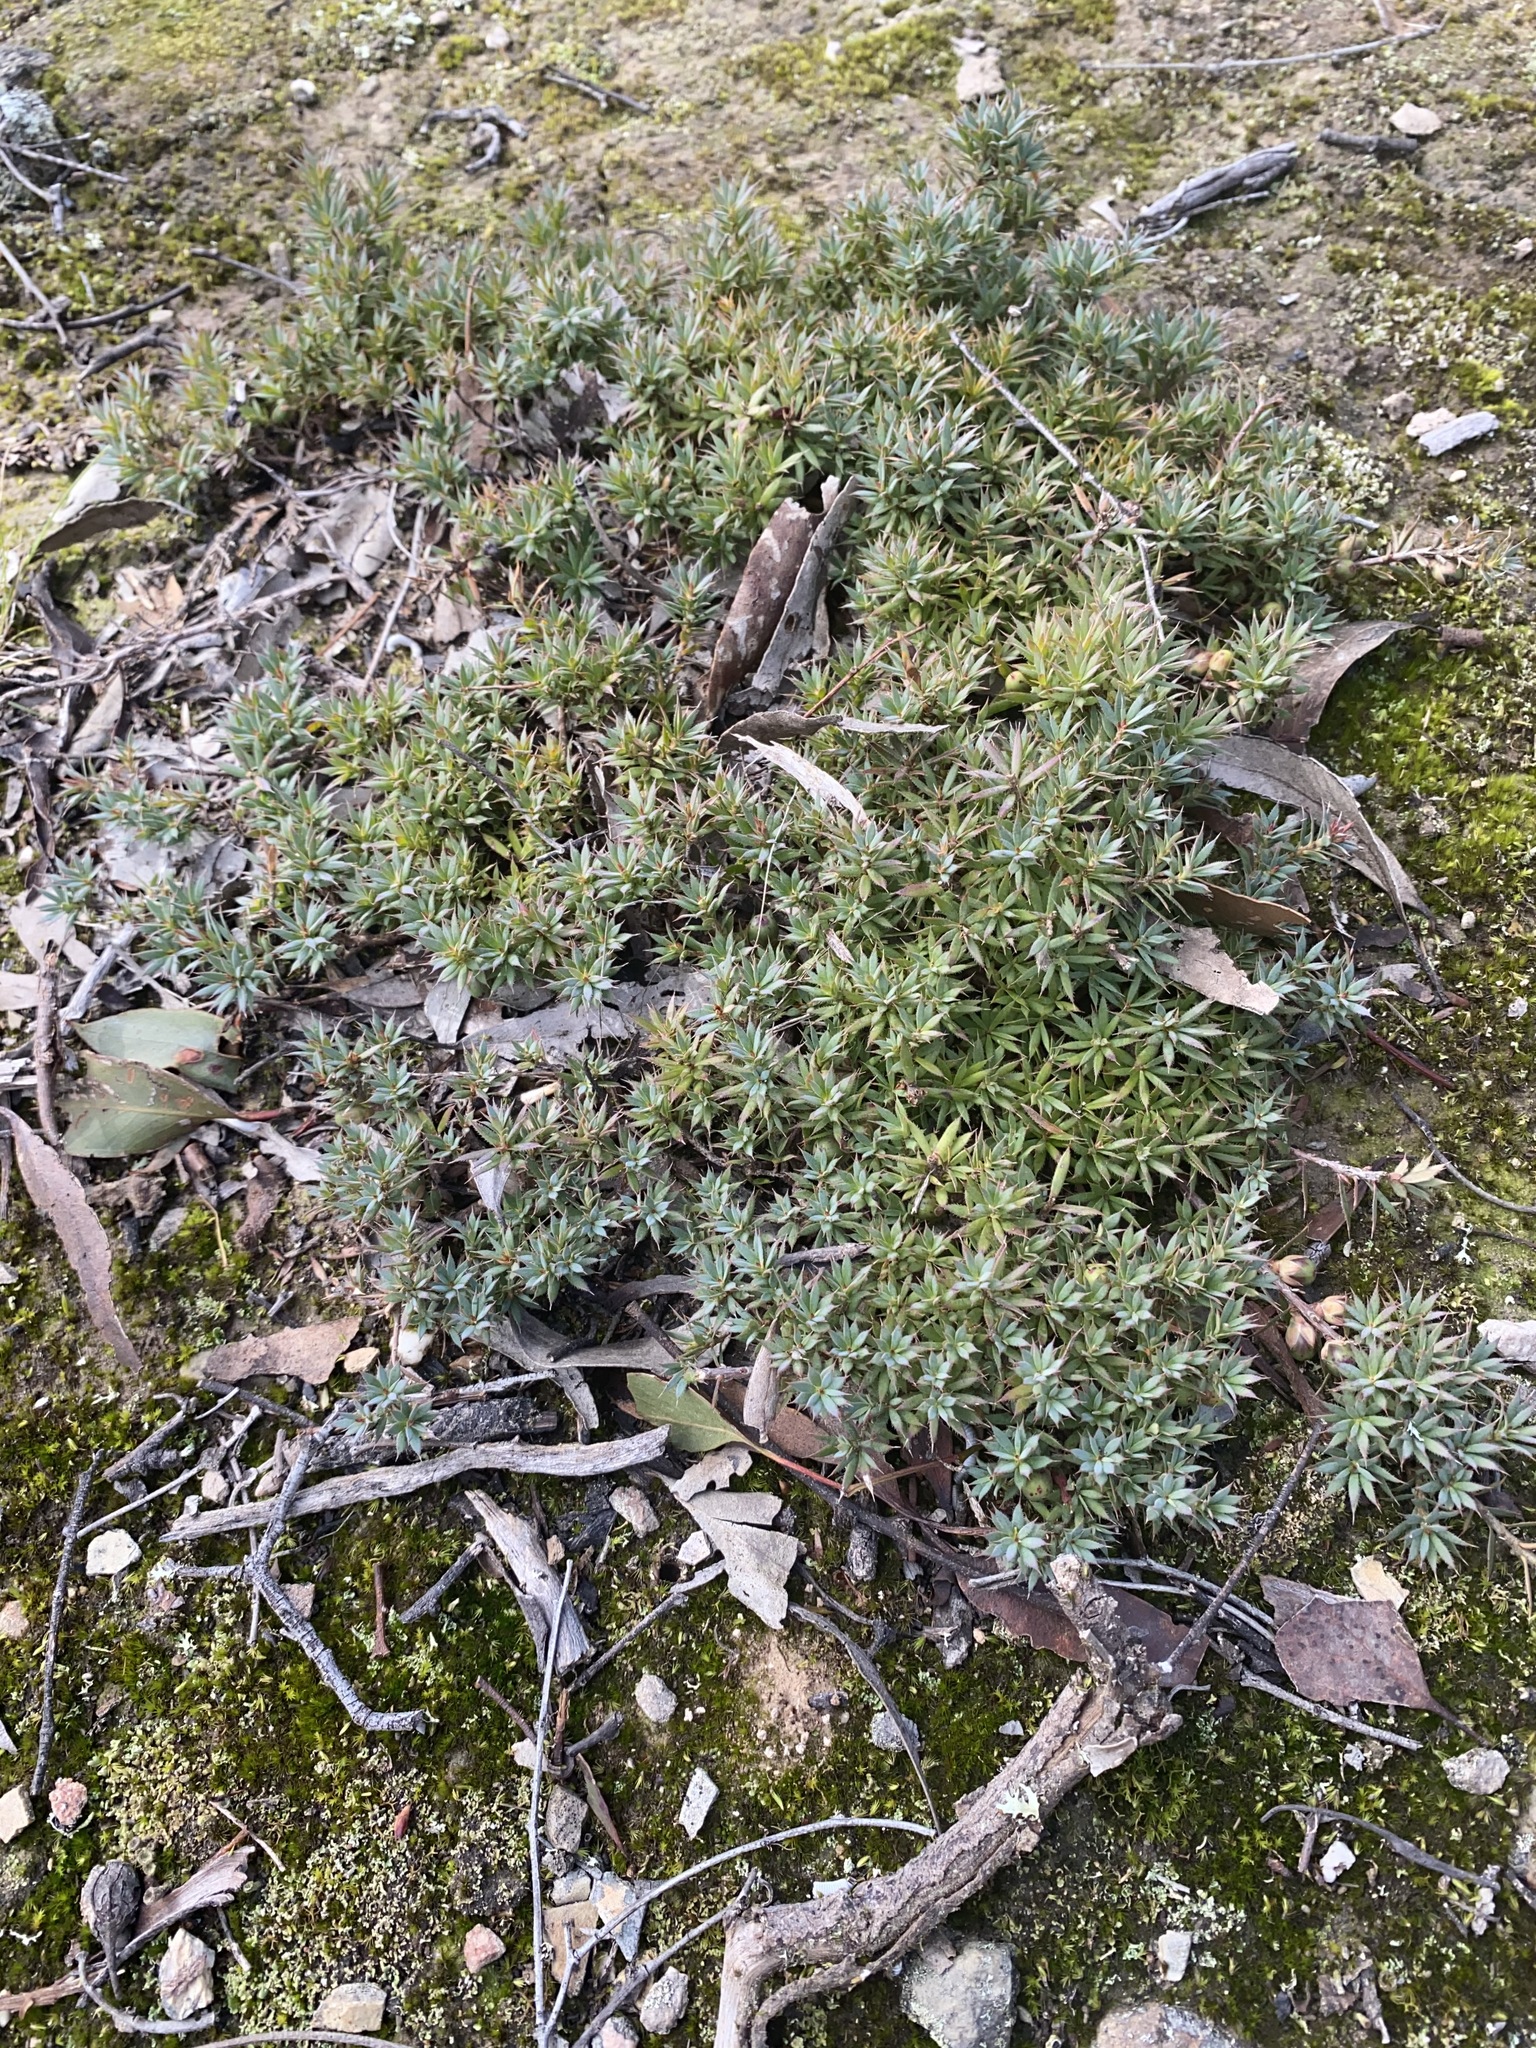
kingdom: Plantae
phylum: Tracheophyta
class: Magnoliopsida
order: Ericales
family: Ericaceae
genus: Styphelia
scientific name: Styphelia humifusa
